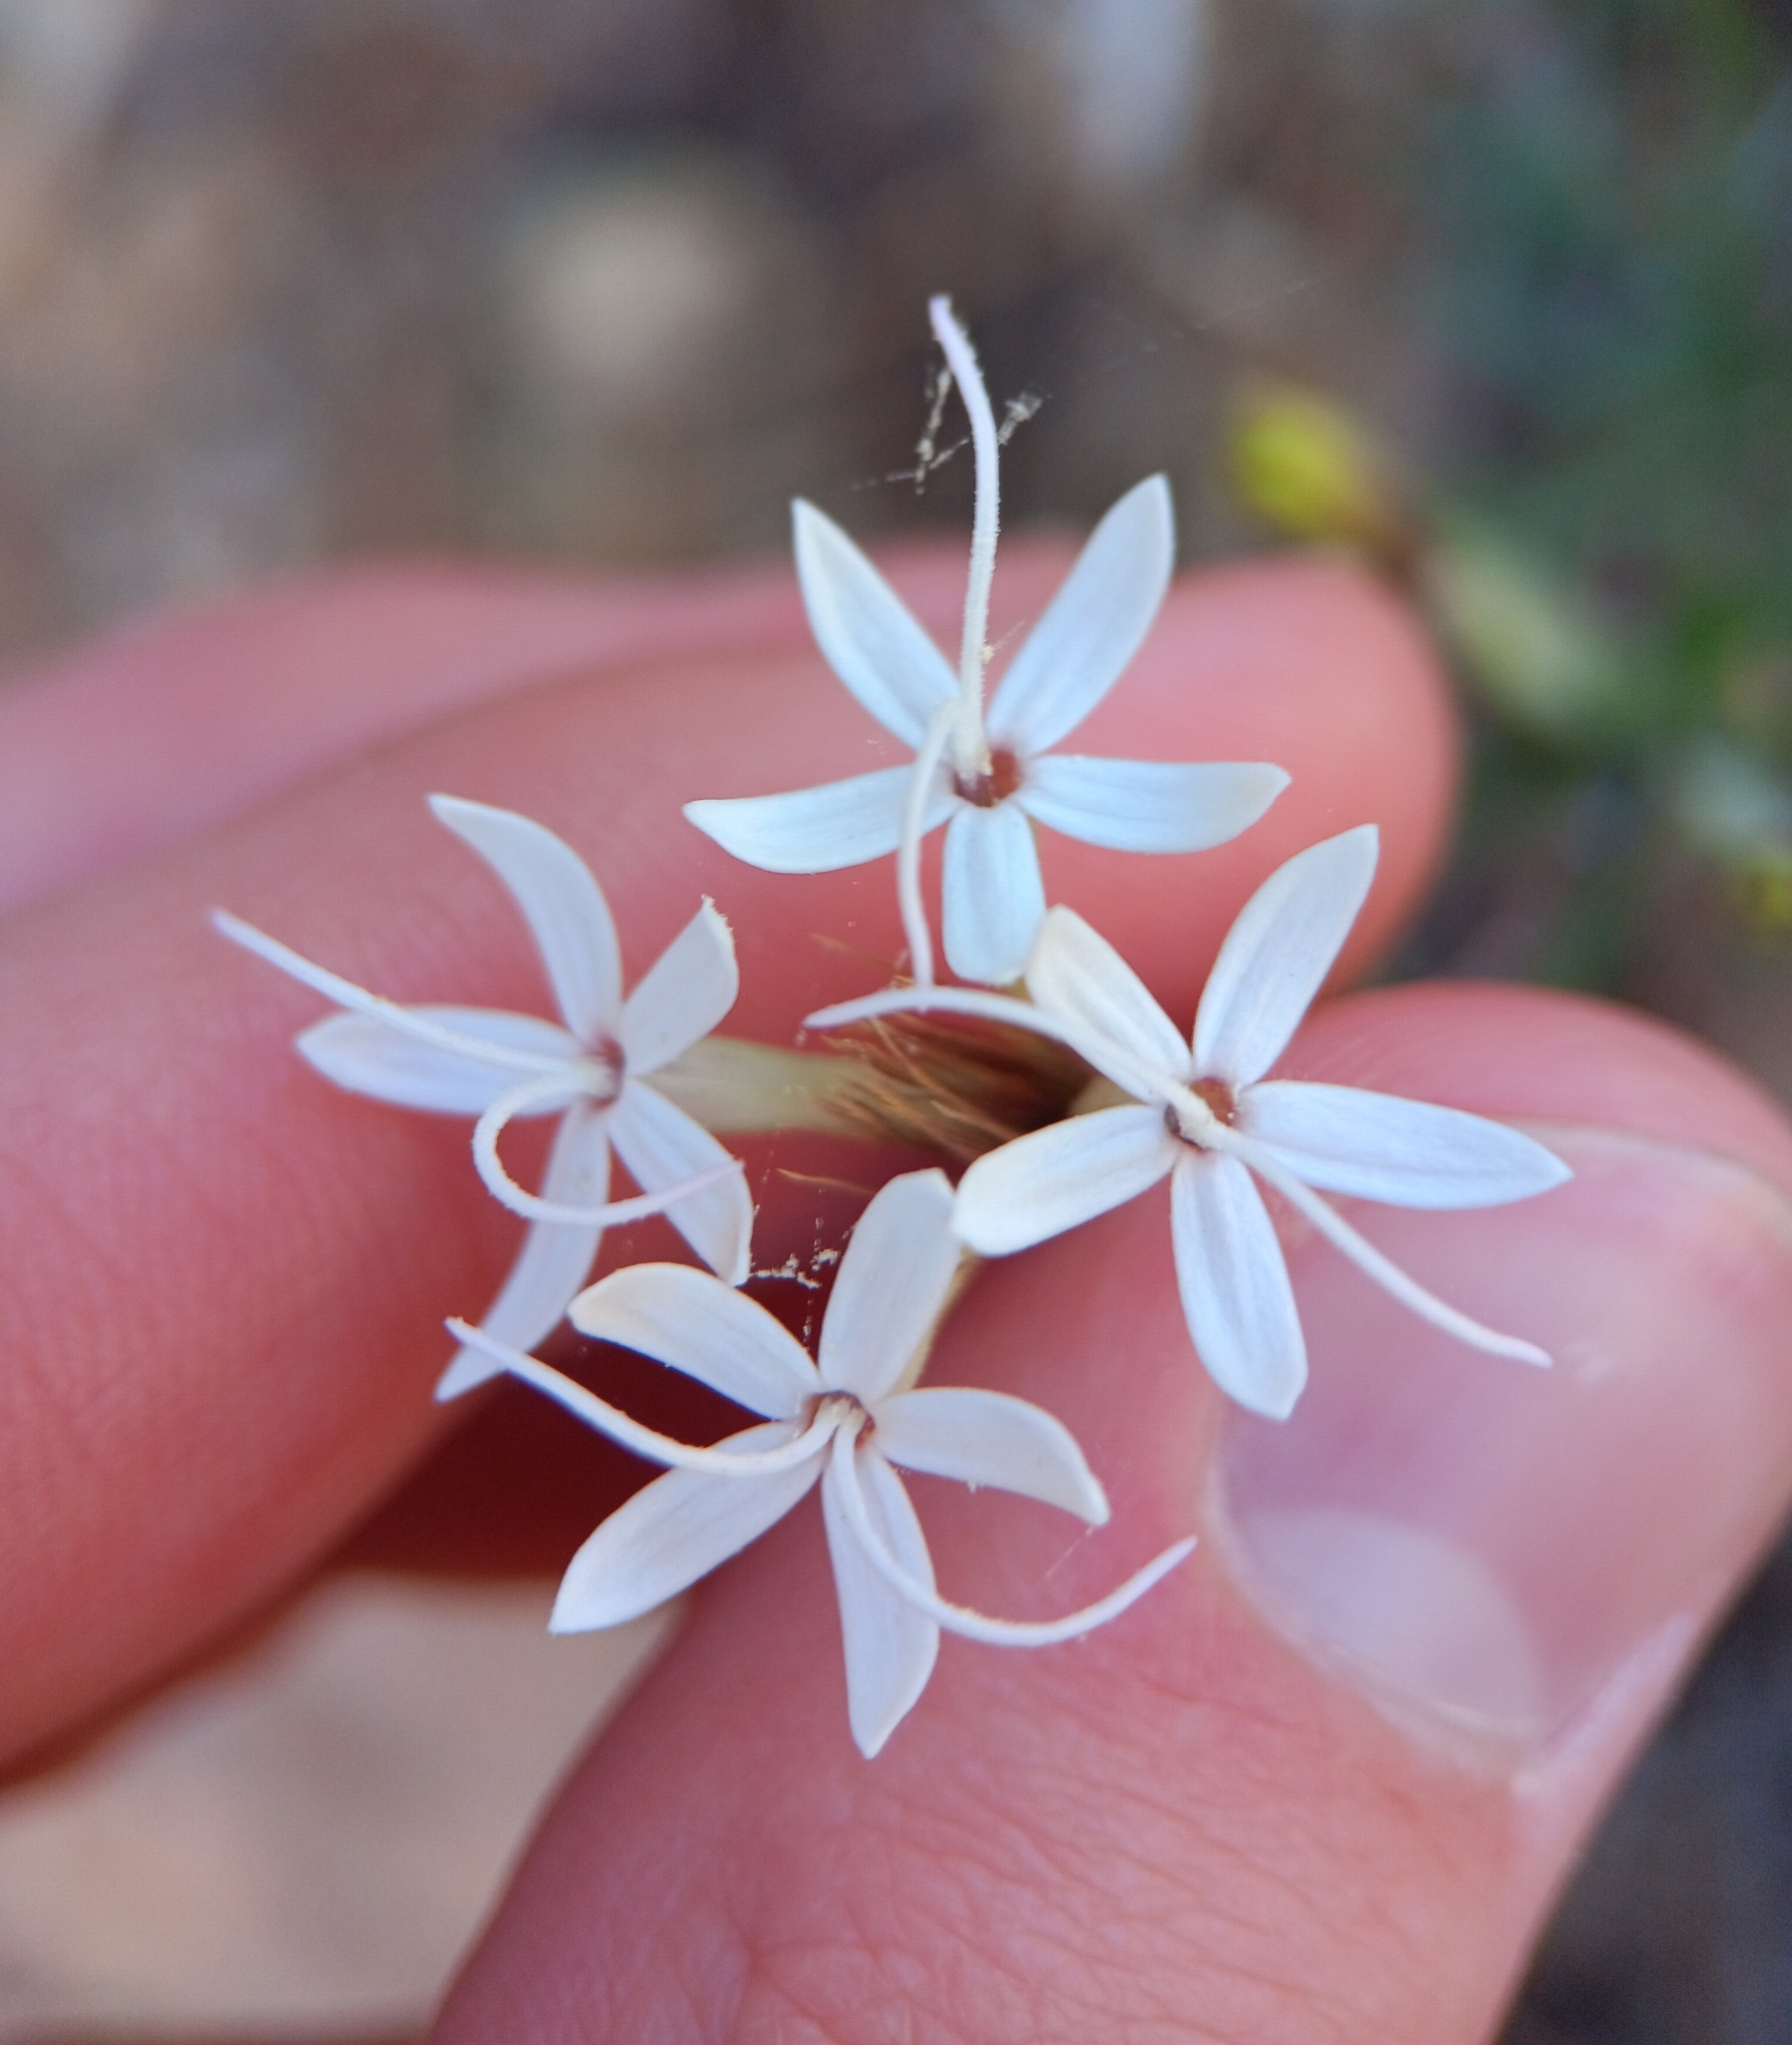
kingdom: Plantae
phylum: Tracheophyta
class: Magnoliopsida
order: Asterales
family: Asteraceae
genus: Carphochaete
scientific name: Carphochaete bigelovii
